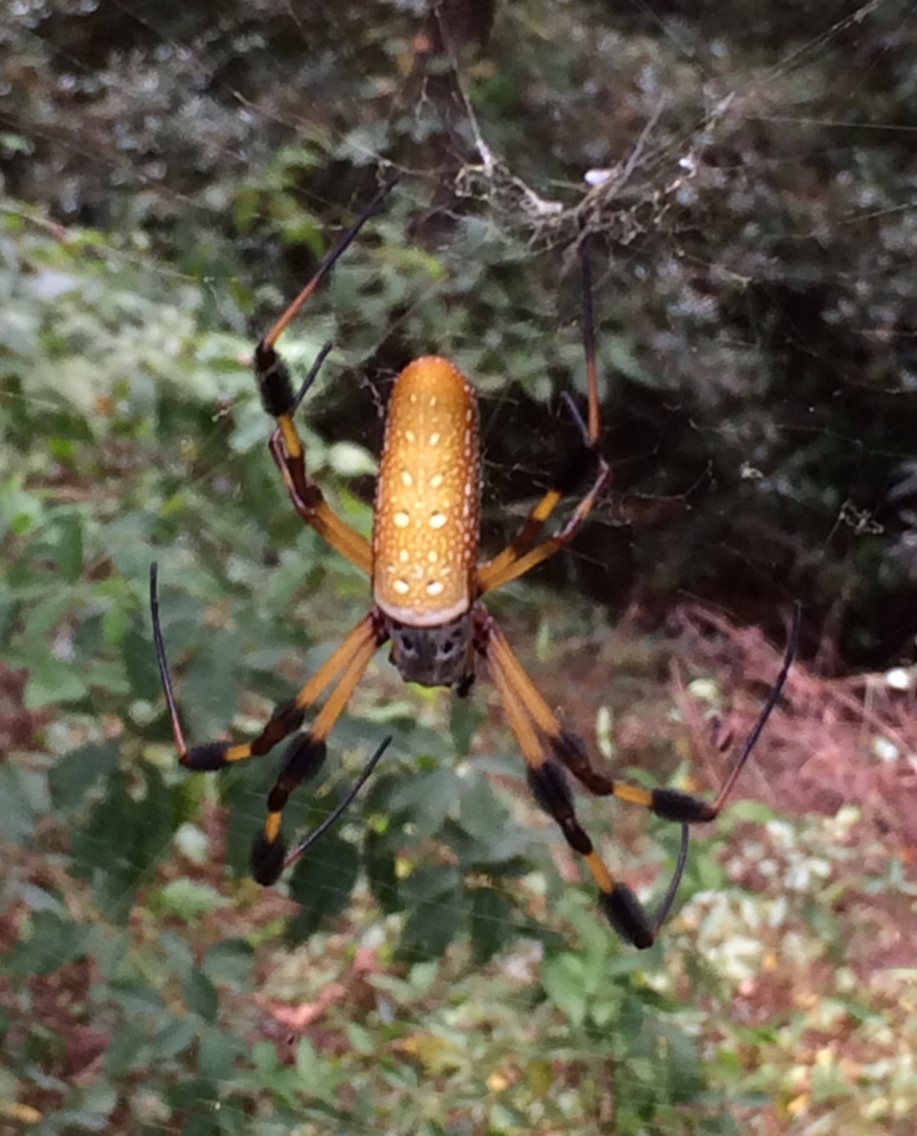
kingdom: Animalia
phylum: Arthropoda
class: Arachnida
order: Araneae
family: Araneidae
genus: Trichonephila
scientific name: Trichonephila clavipes
